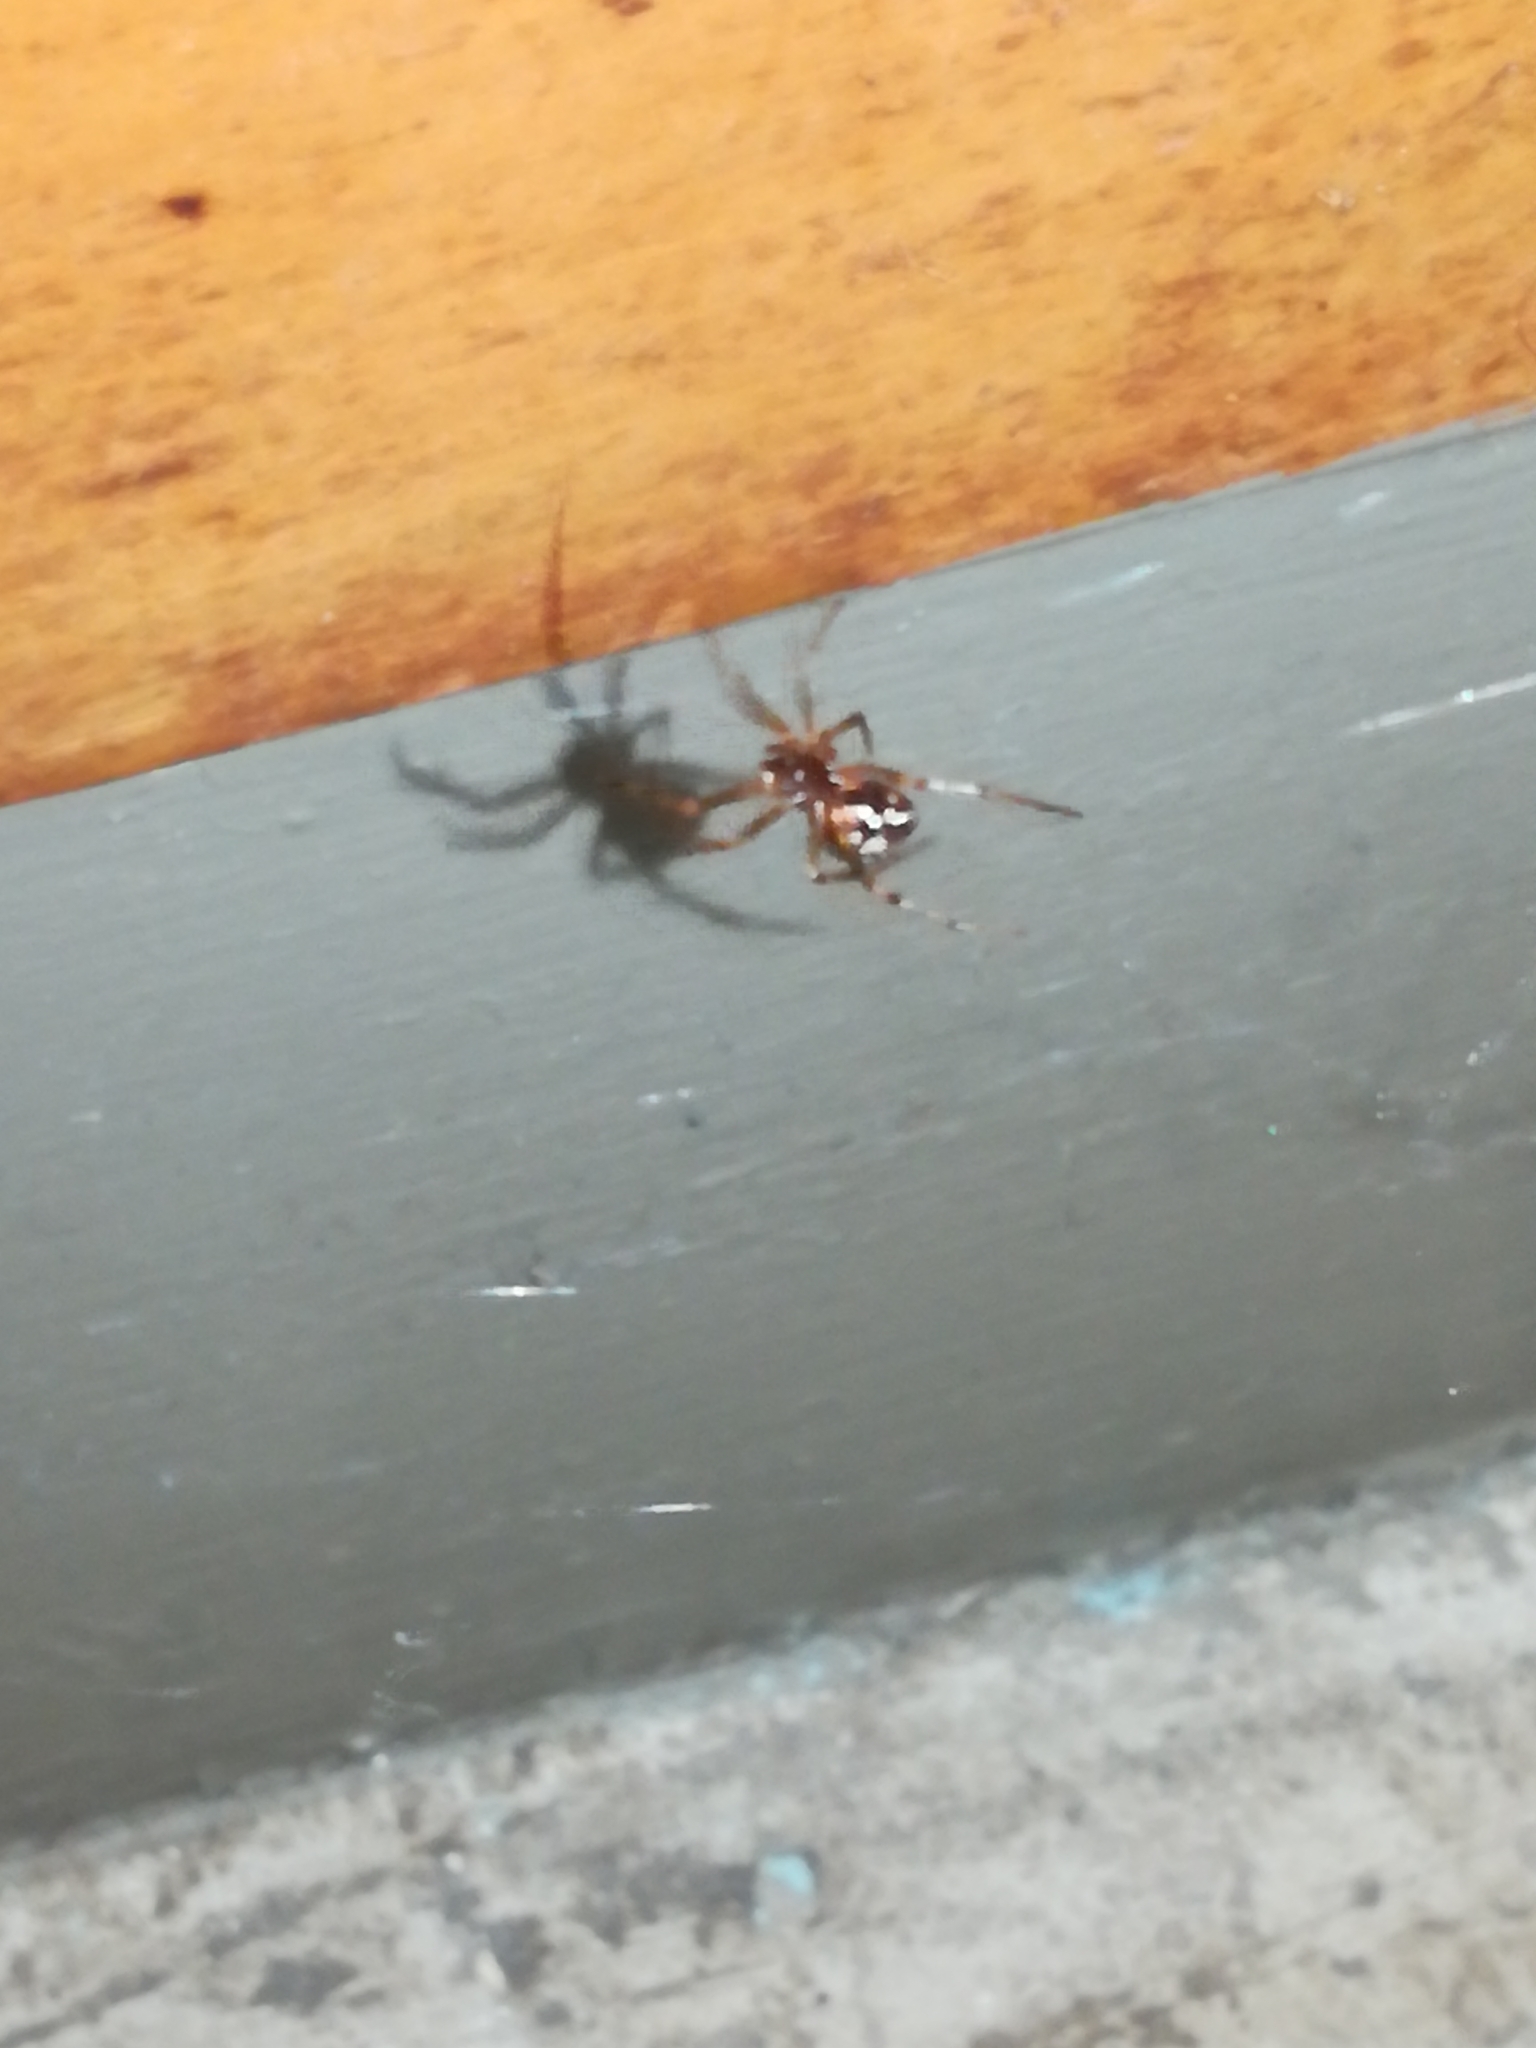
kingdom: Animalia
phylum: Arthropoda
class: Arachnida
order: Araneae
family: Theridiidae
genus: Steatoda
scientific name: Steatoda triangulosa
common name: Triangulate bud spider
